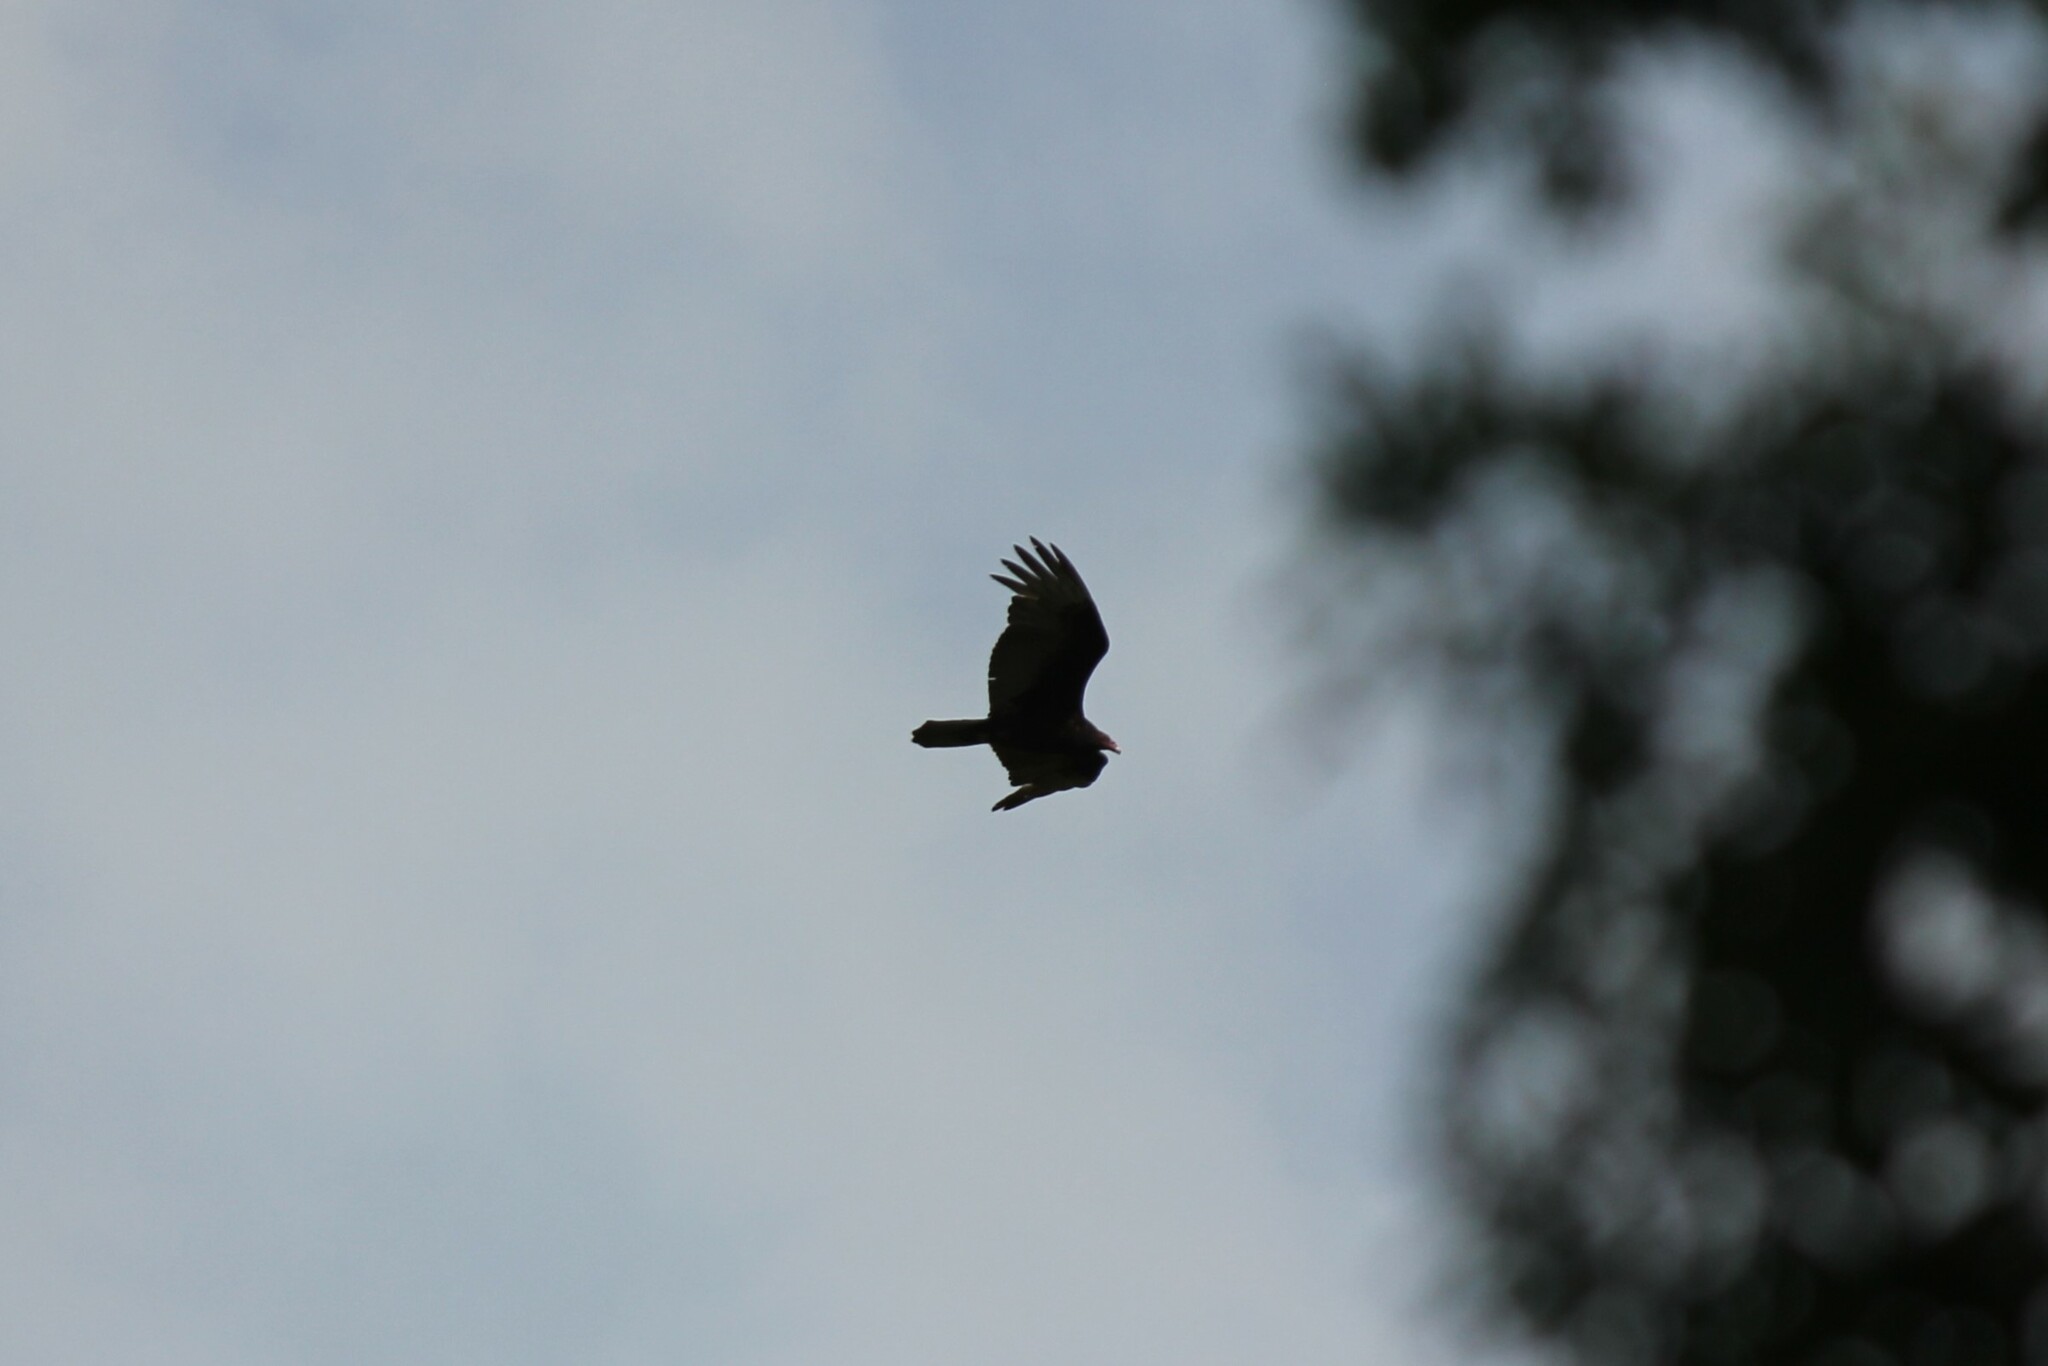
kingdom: Animalia
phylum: Chordata
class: Aves
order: Accipitriformes
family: Cathartidae
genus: Cathartes
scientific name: Cathartes aura
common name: Turkey vulture
